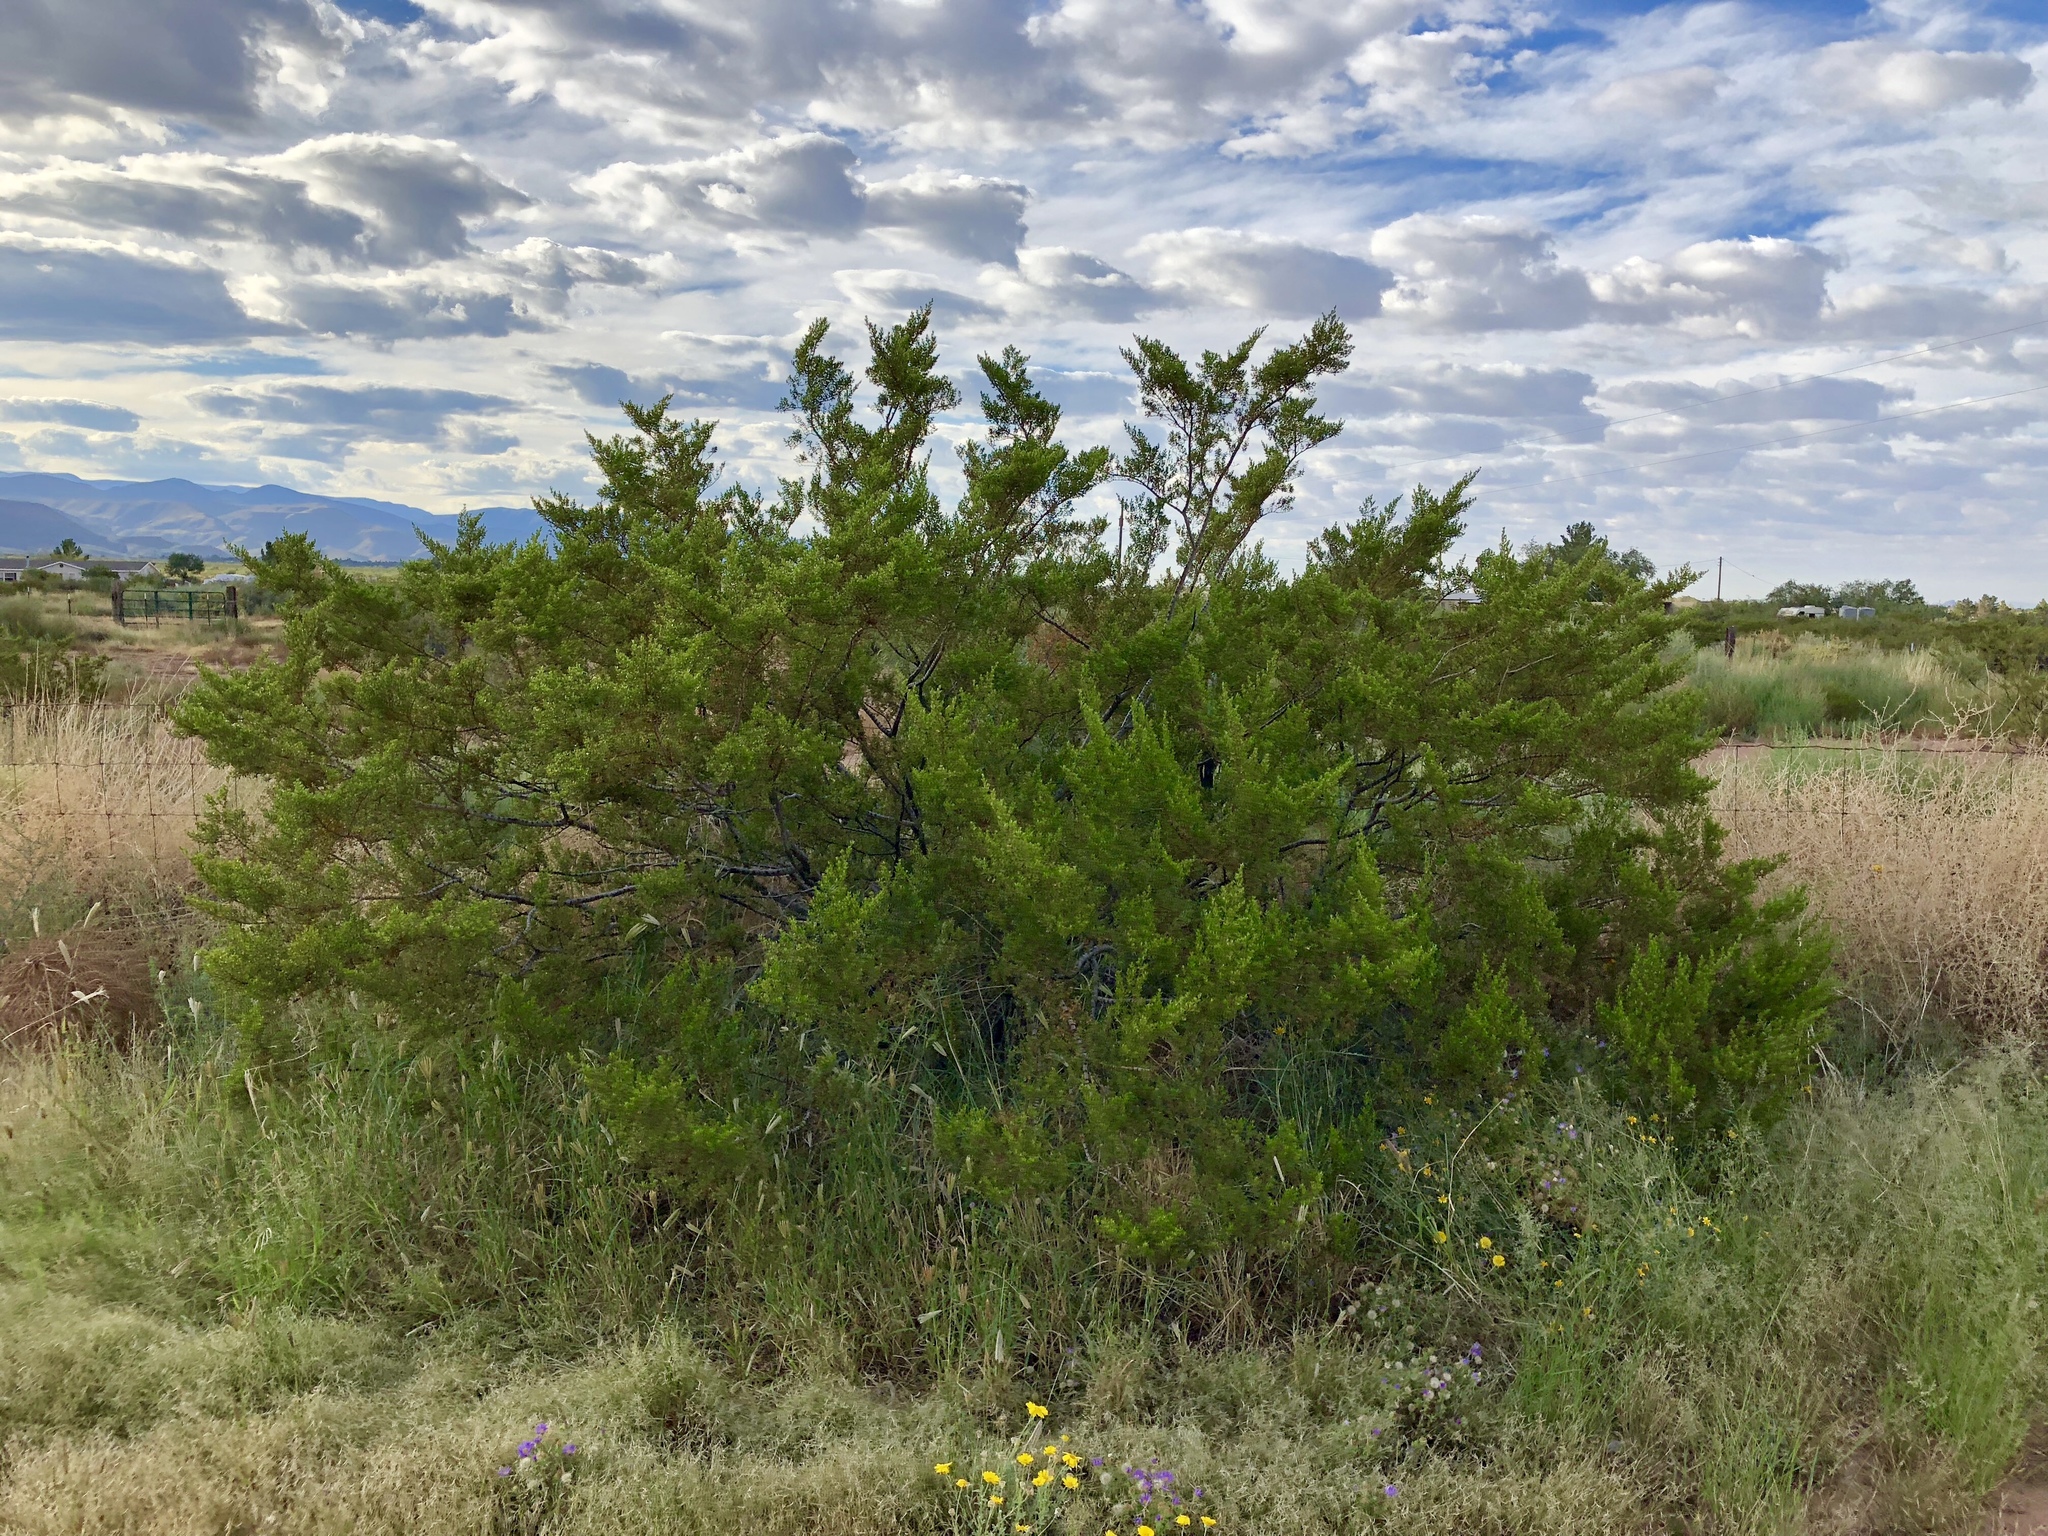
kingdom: Plantae
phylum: Tracheophyta
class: Magnoliopsida
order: Zygophyllales
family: Zygophyllaceae
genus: Larrea
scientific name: Larrea tridentata
